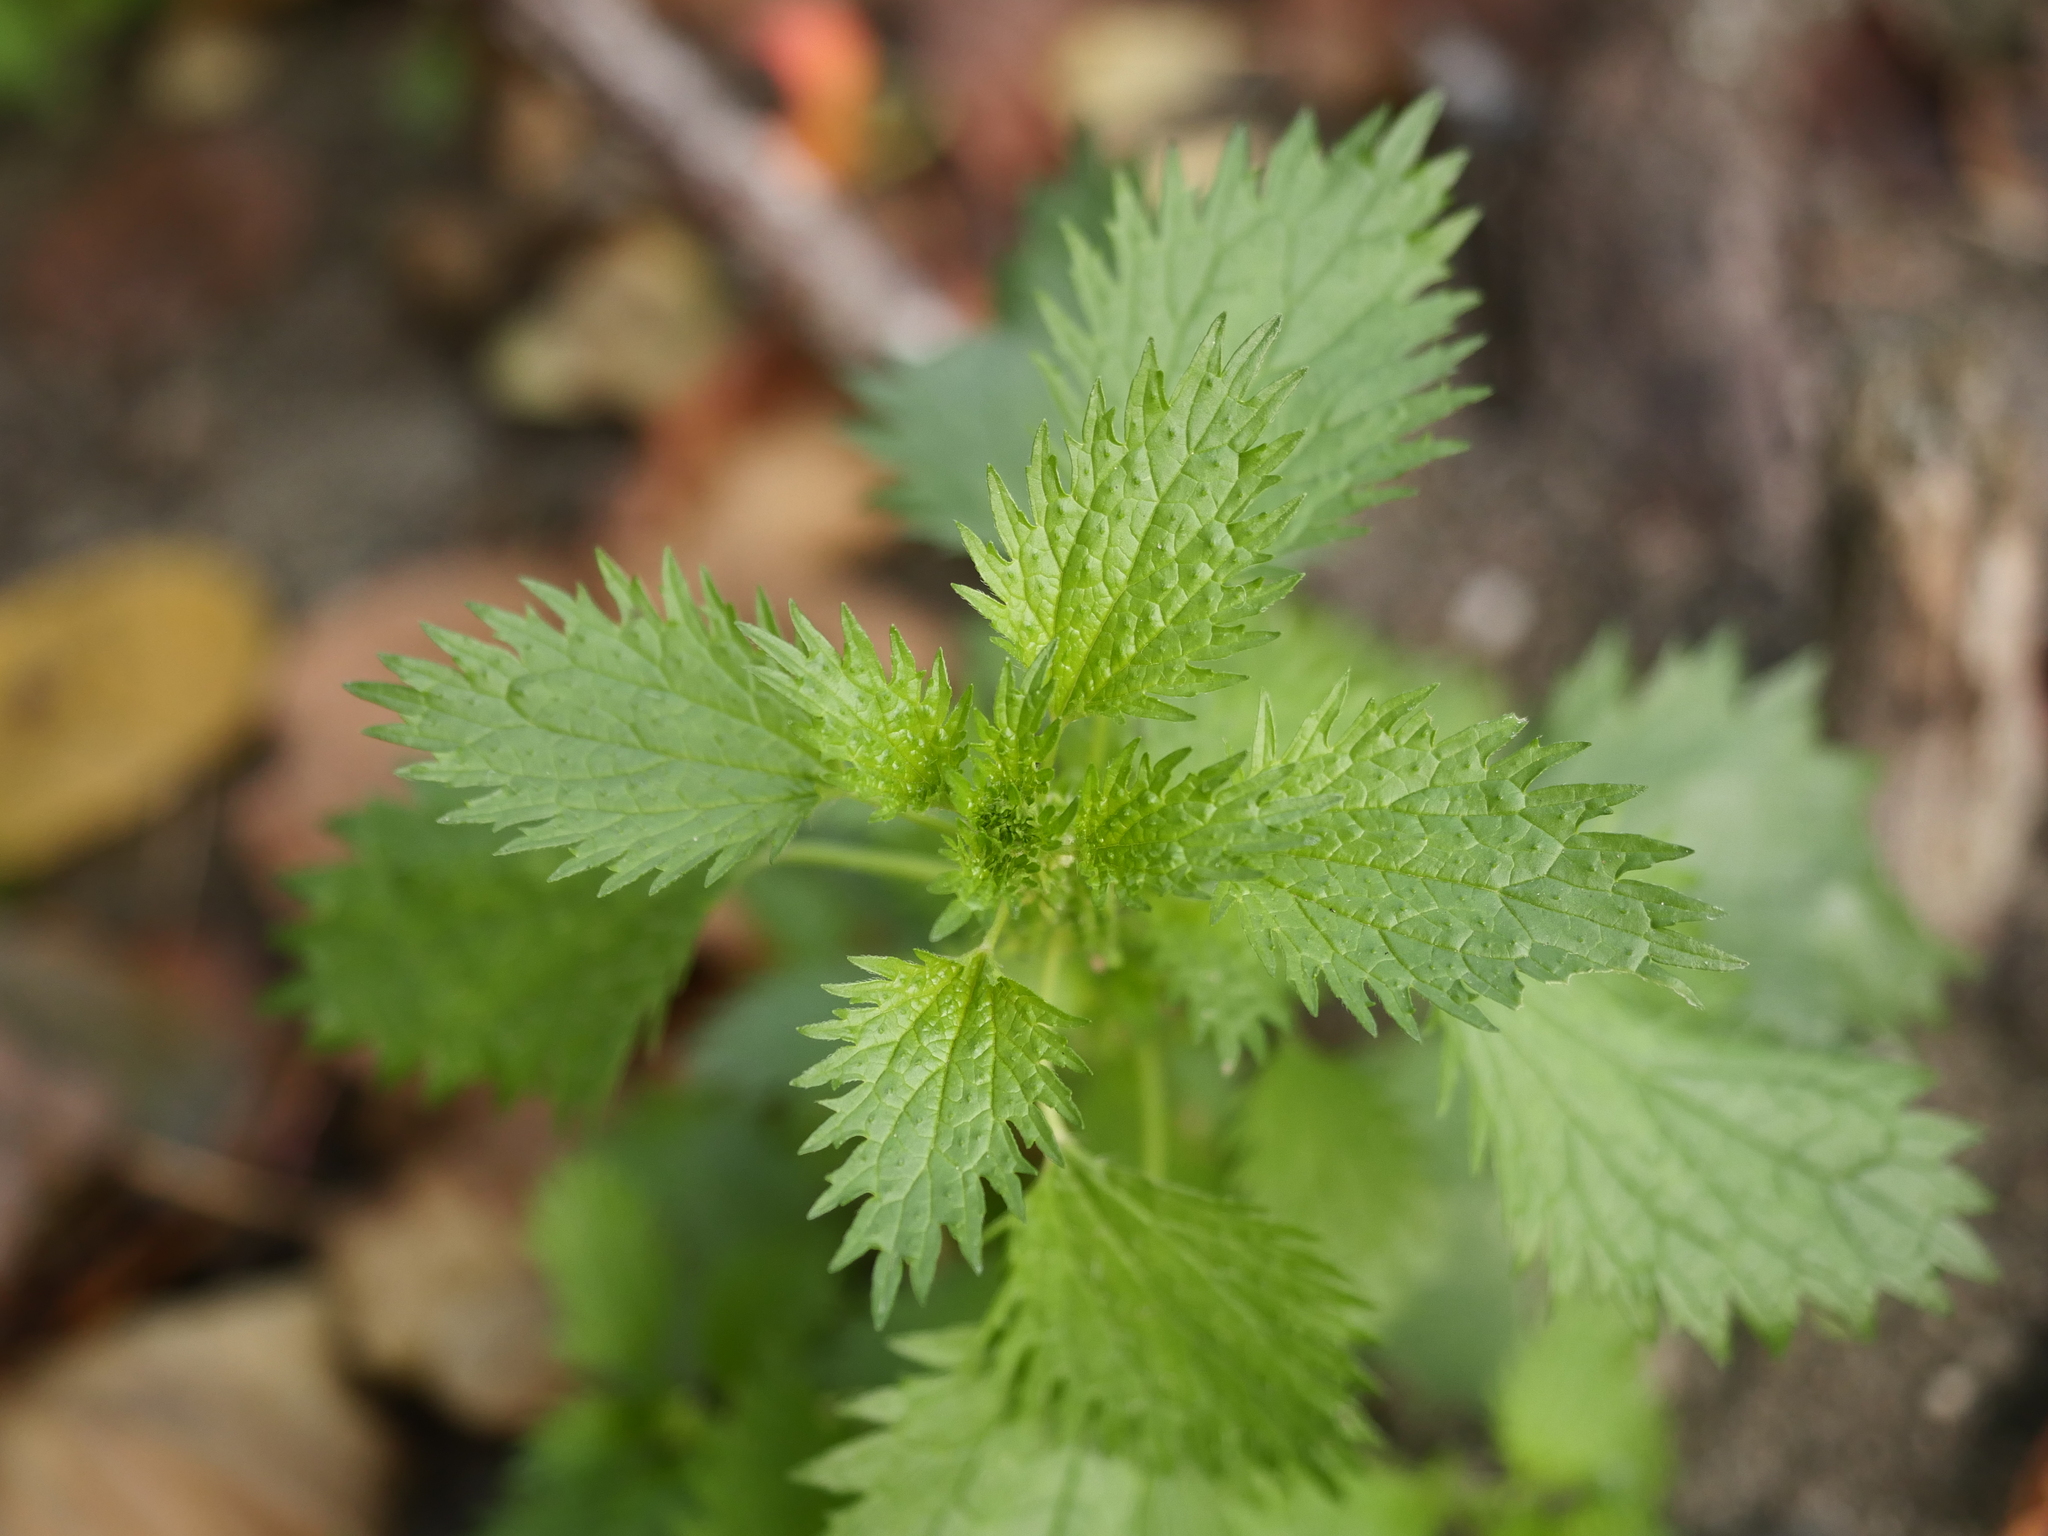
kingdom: Plantae
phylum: Tracheophyta
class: Magnoliopsida
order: Rosales
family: Urticaceae
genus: Urtica
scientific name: Urtica urens
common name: Dwarf nettle
